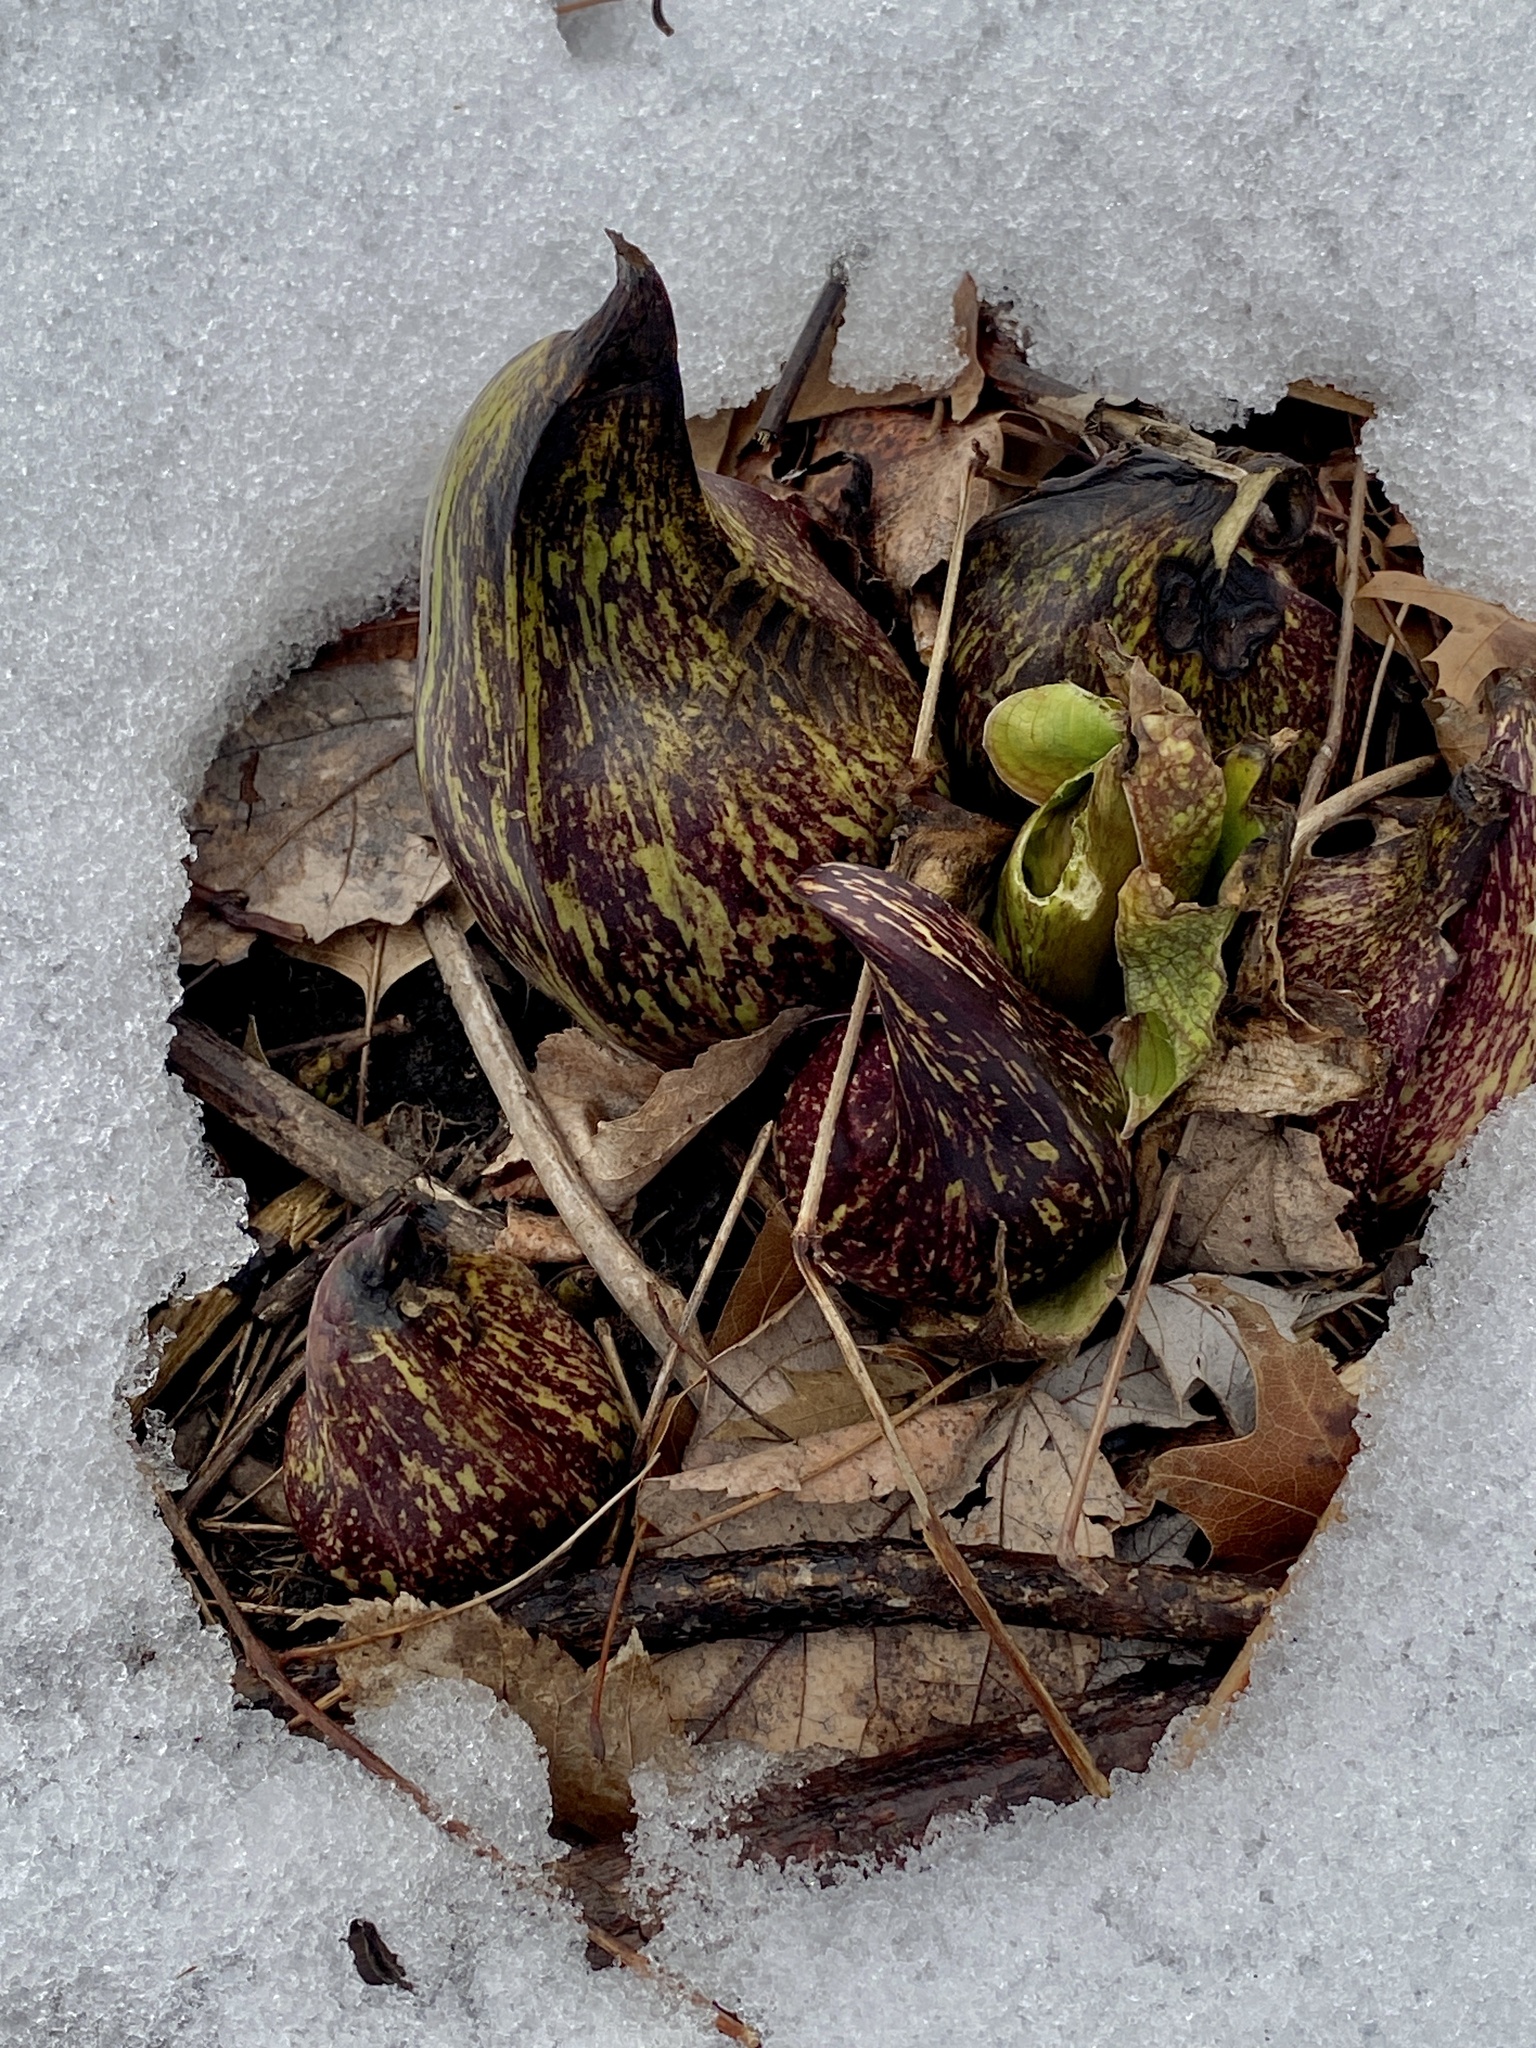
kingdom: Plantae
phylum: Tracheophyta
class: Liliopsida
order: Alismatales
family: Araceae
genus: Symplocarpus
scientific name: Symplocarpus foetidus
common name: Eastern skunk cabbage
